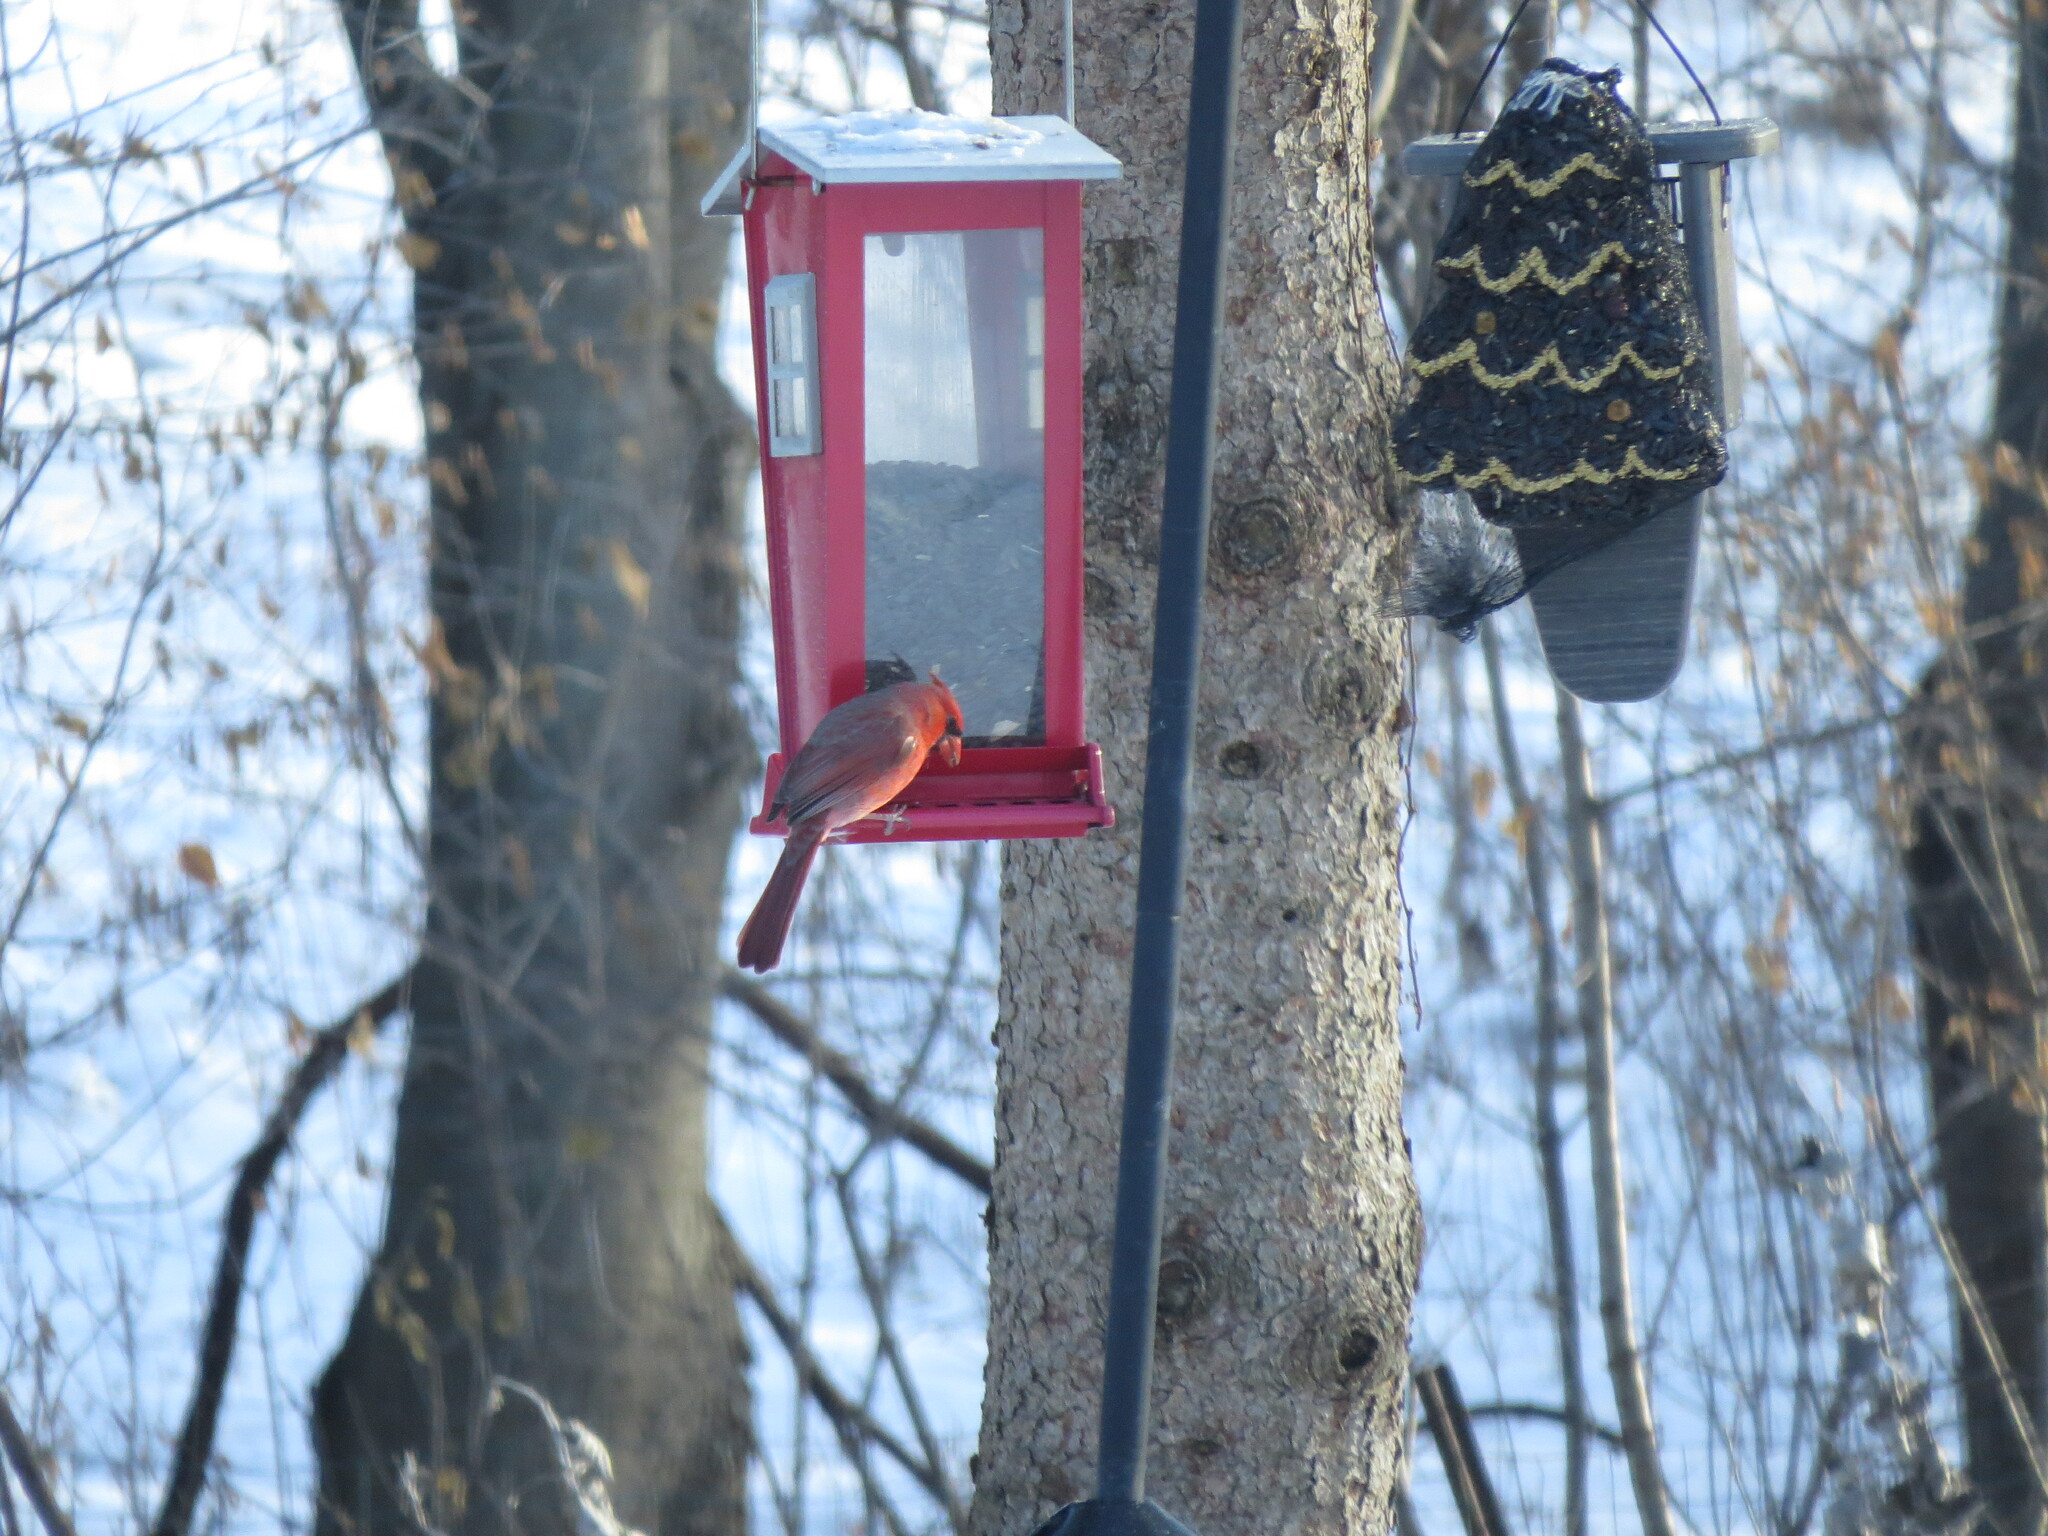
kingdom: Animalia
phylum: Chordata
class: Aves
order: Passeriformes
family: Cardinalidae
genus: Cardinalis
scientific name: Cardinalis cardinalis
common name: Northern cardinal
